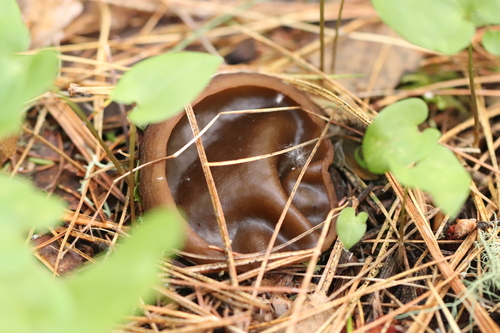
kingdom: Fungi
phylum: Ascomycota
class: Pezizomycetes
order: Pezizales
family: Sarcosomataceae
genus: Sarcosoma
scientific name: Sarcosoma globosum
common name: Charred-pancake cup
